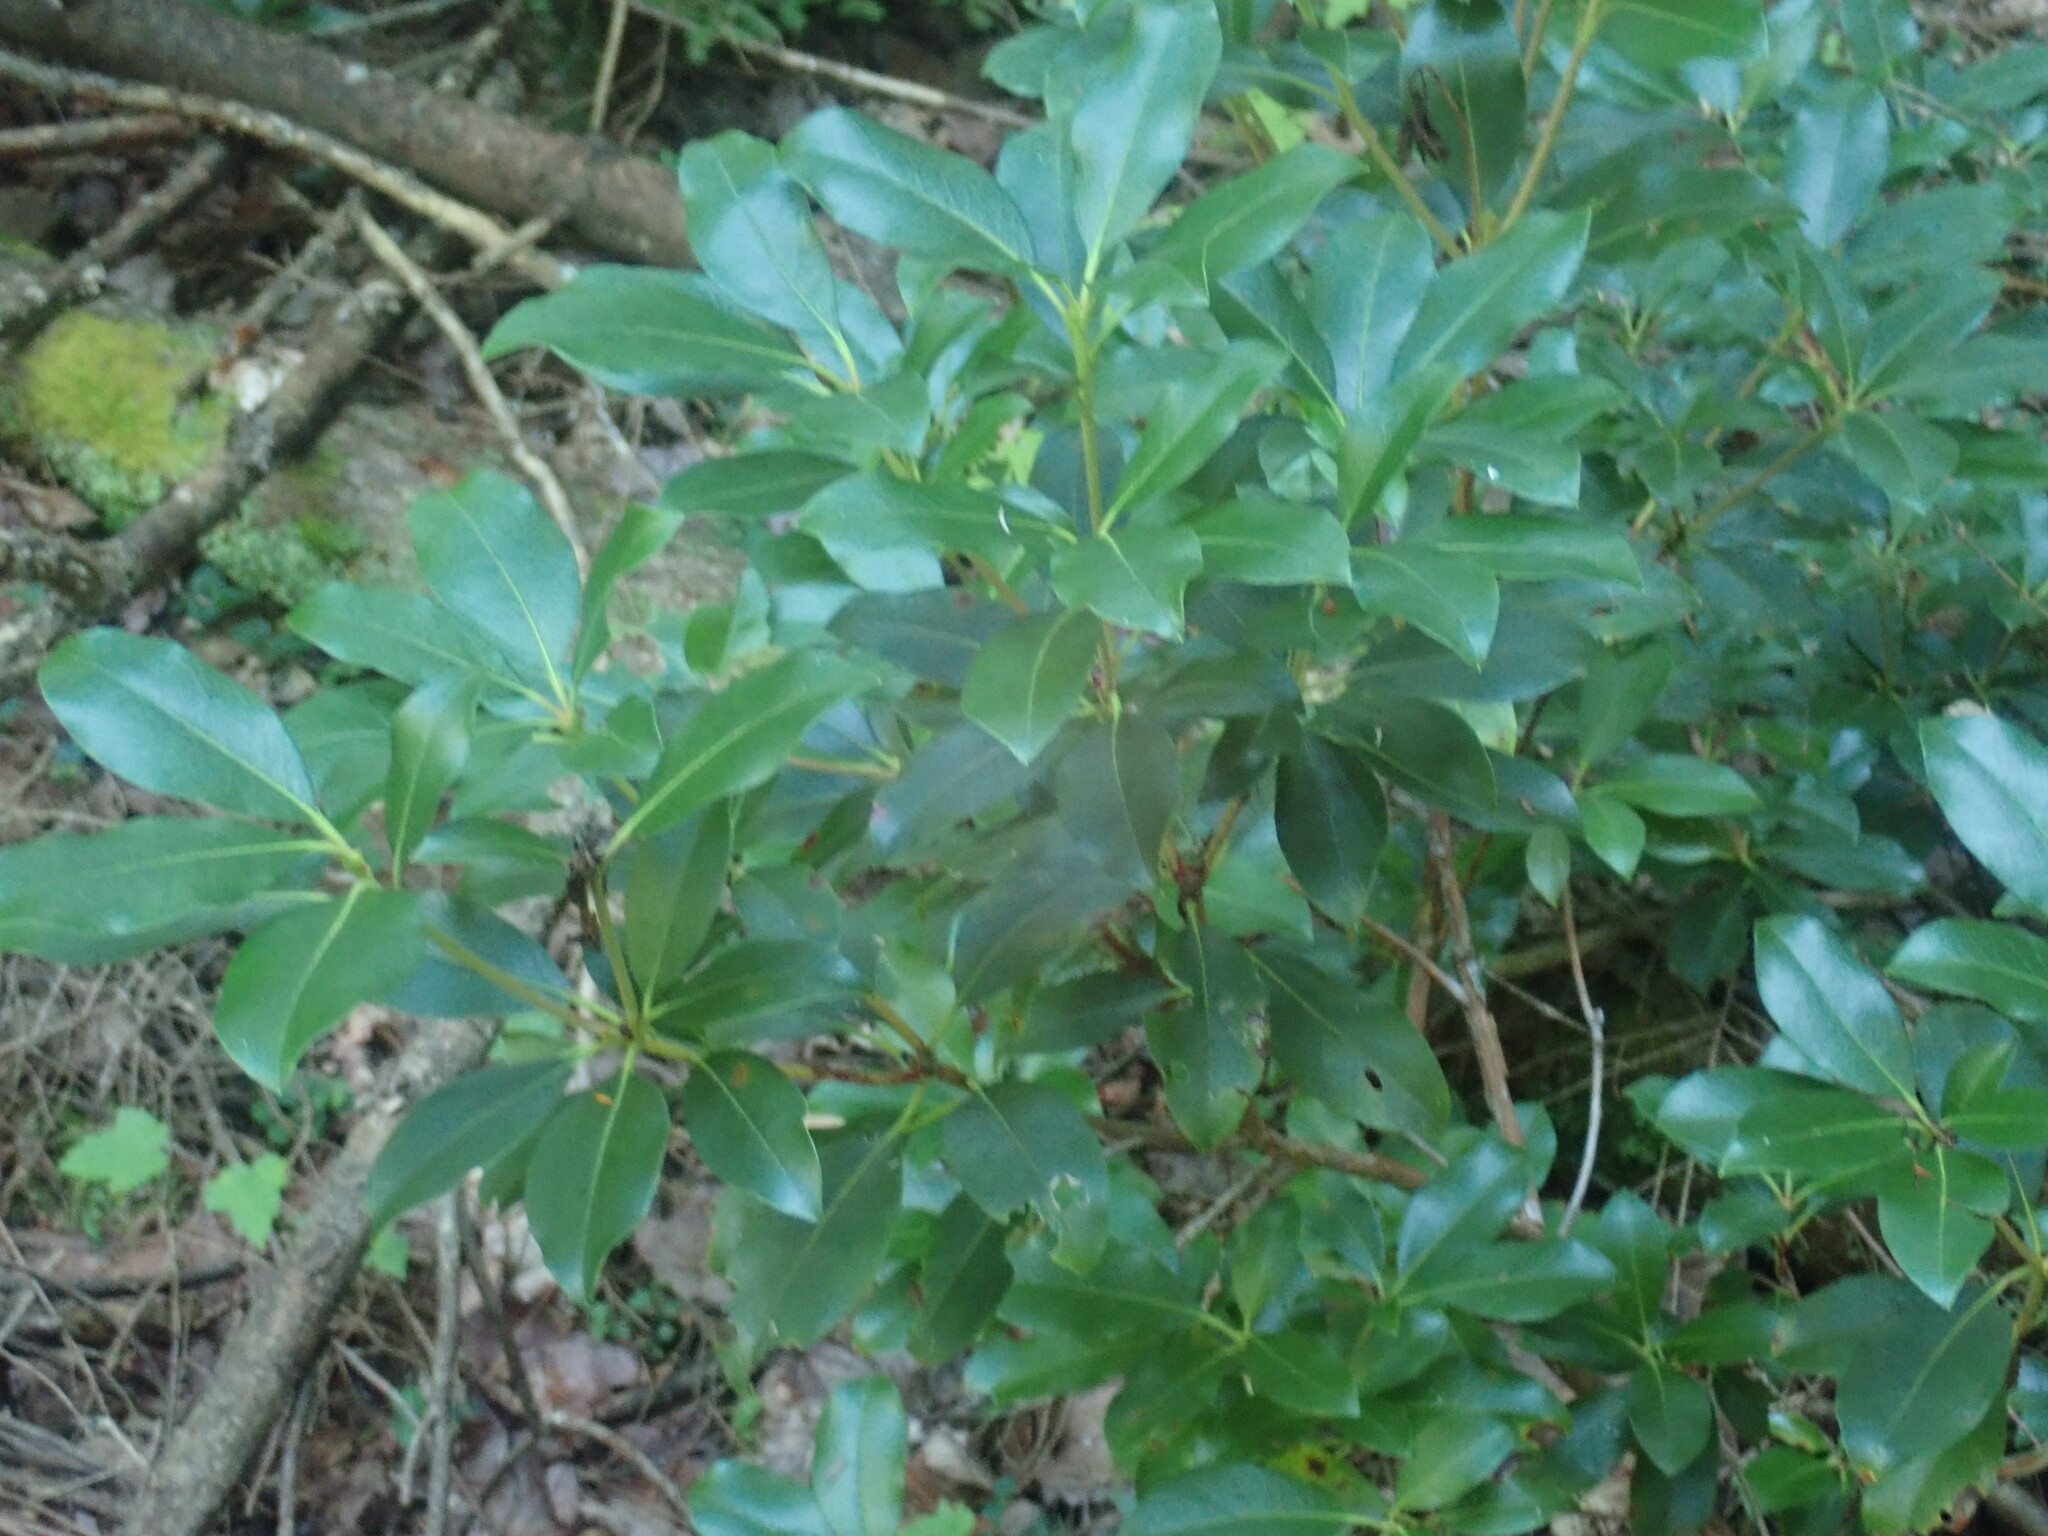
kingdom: Plantae
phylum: Tracheophyta
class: Magnoliopsida
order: Ericales
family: Ericaceae
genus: Kalmia
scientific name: Kalmia latifolia
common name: Mountain-laurel
